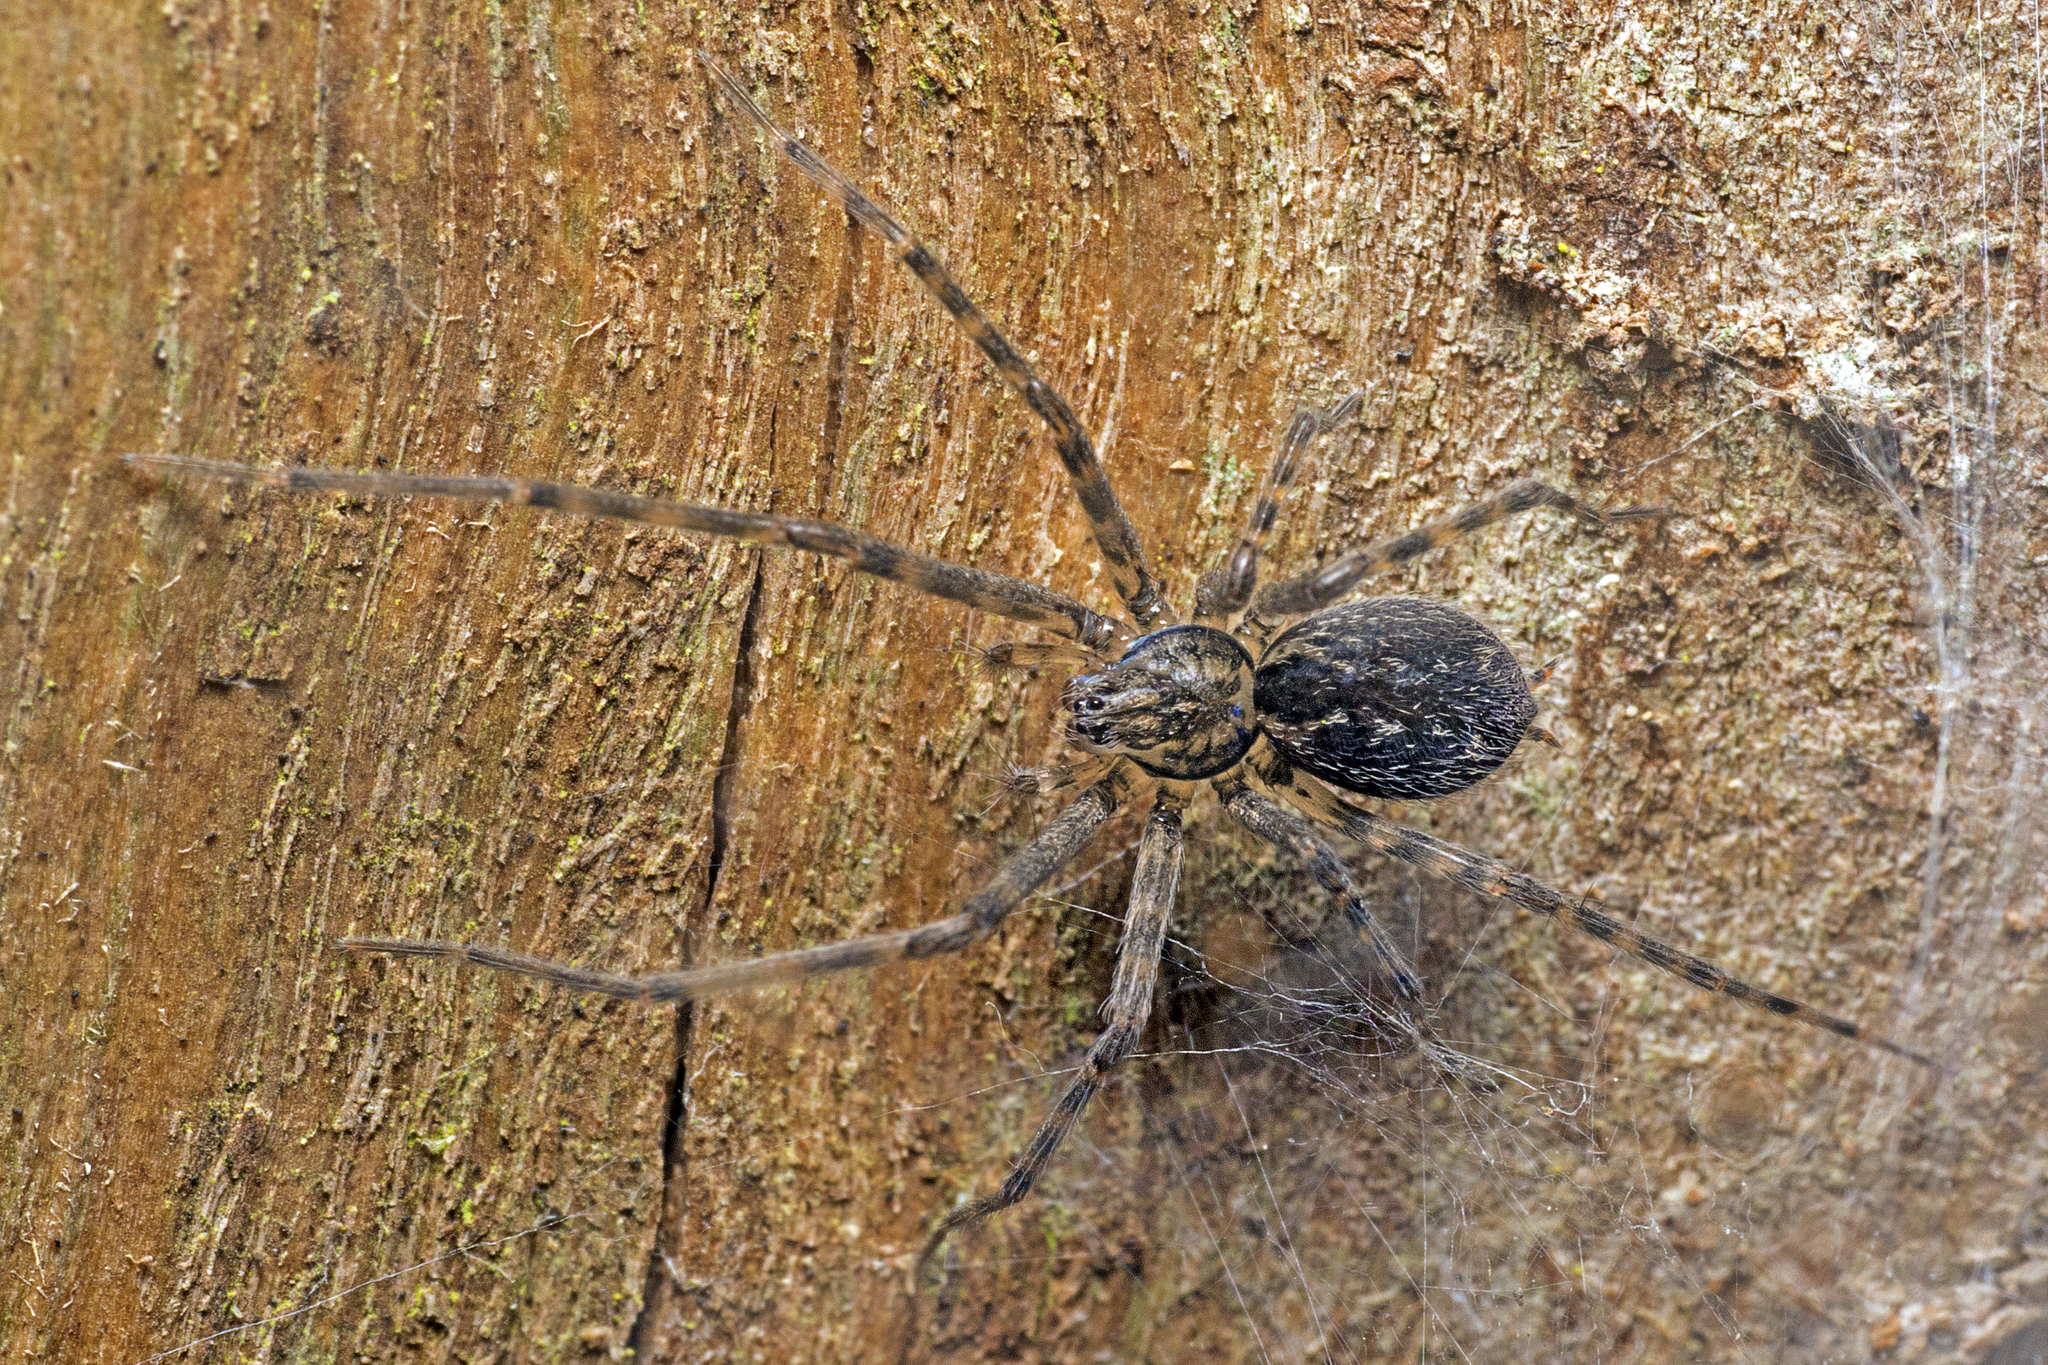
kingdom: Animalia
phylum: Arthropoda
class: Arachnida
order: Araneae
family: Stiphidiidae
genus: Stiphidion
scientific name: Stiphidion facetum
